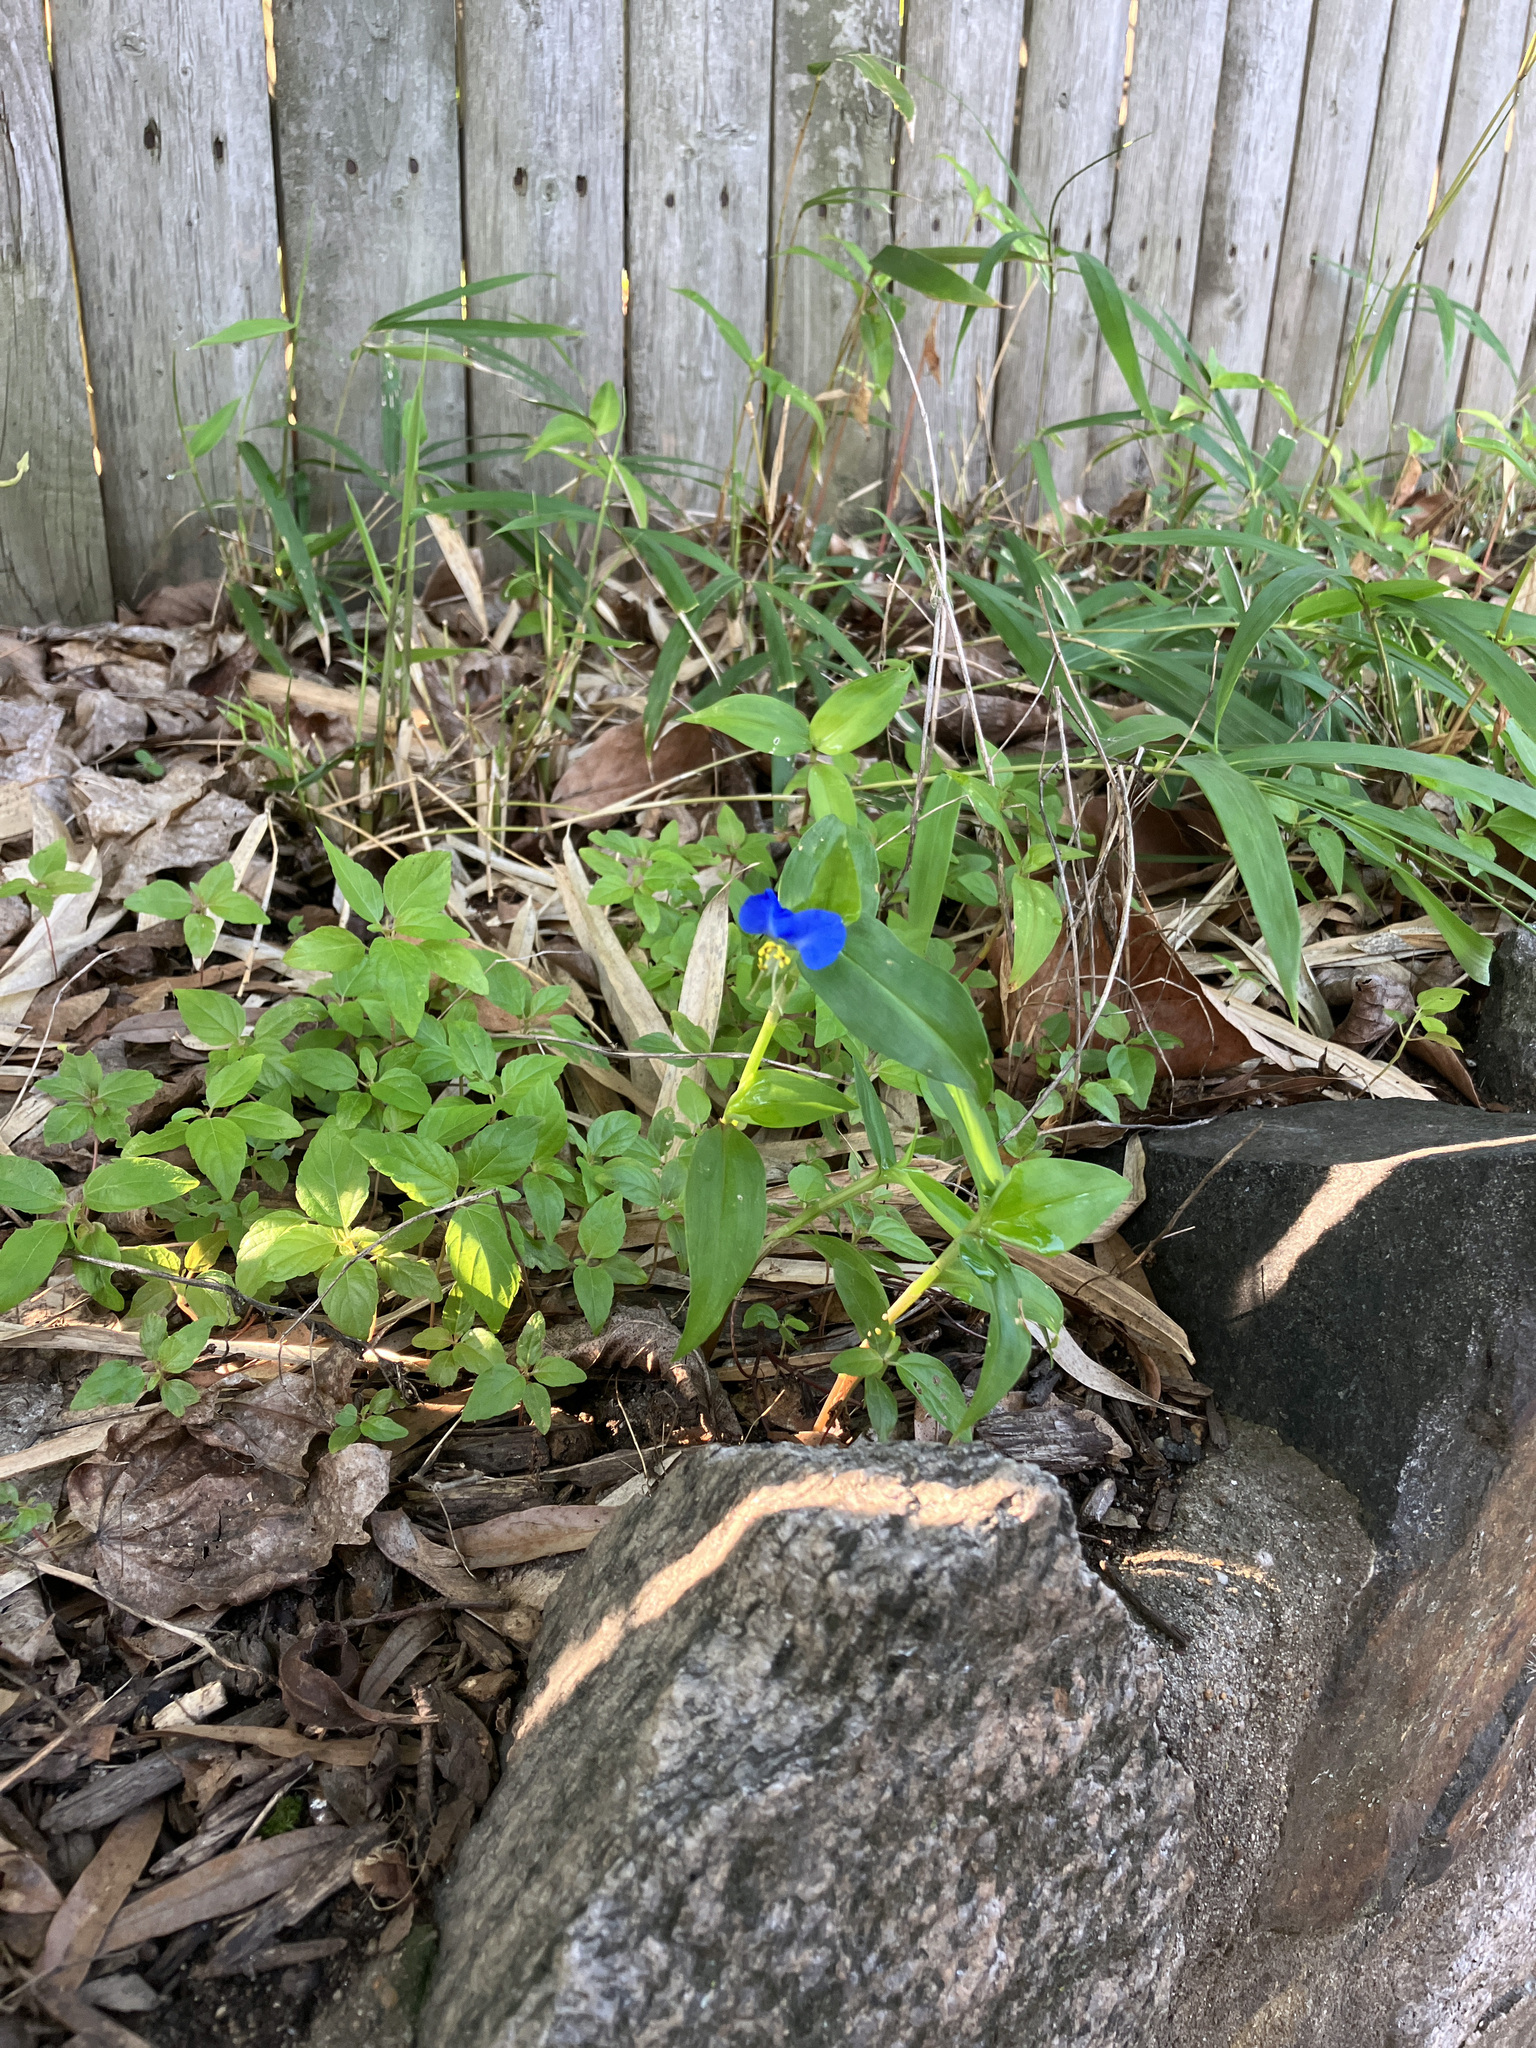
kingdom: Plantae
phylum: Tracheophyta
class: Liliopsida
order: Commelinales
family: Commelinaceae
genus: Commelina
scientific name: Commelina communis
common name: Asiatic dayflower
